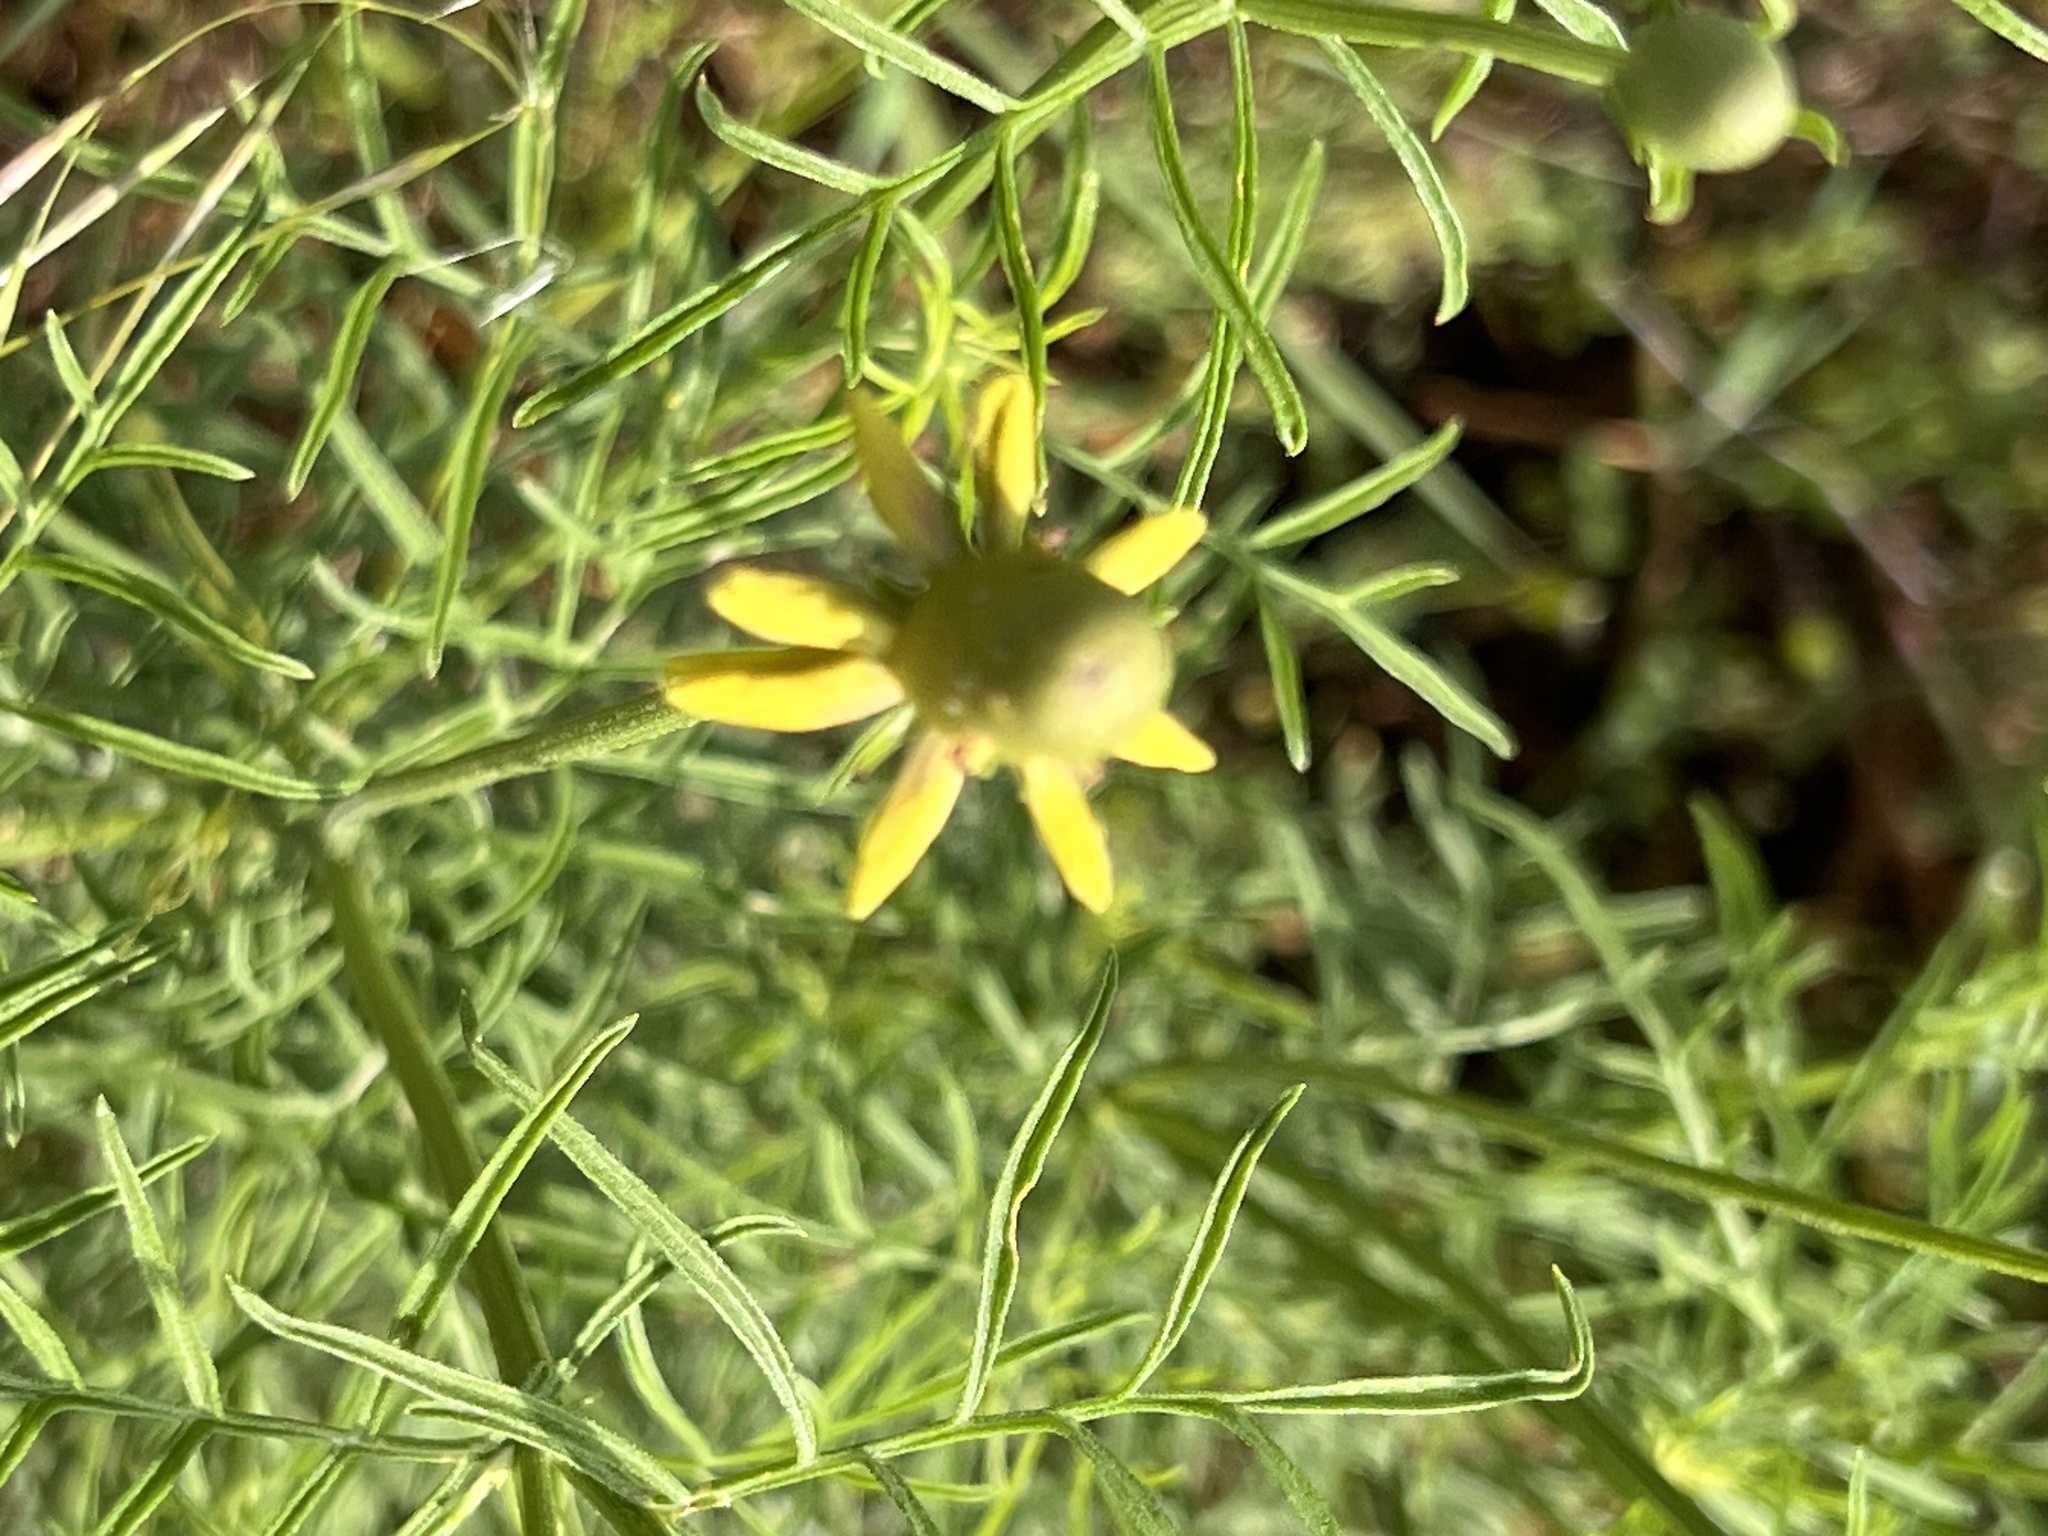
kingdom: Plantae
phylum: Tracheophyta
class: Magnoliopsida
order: Asterales
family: Asteraceae
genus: Ratibida
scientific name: Ratibida columnifera
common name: Prairie coneflower
